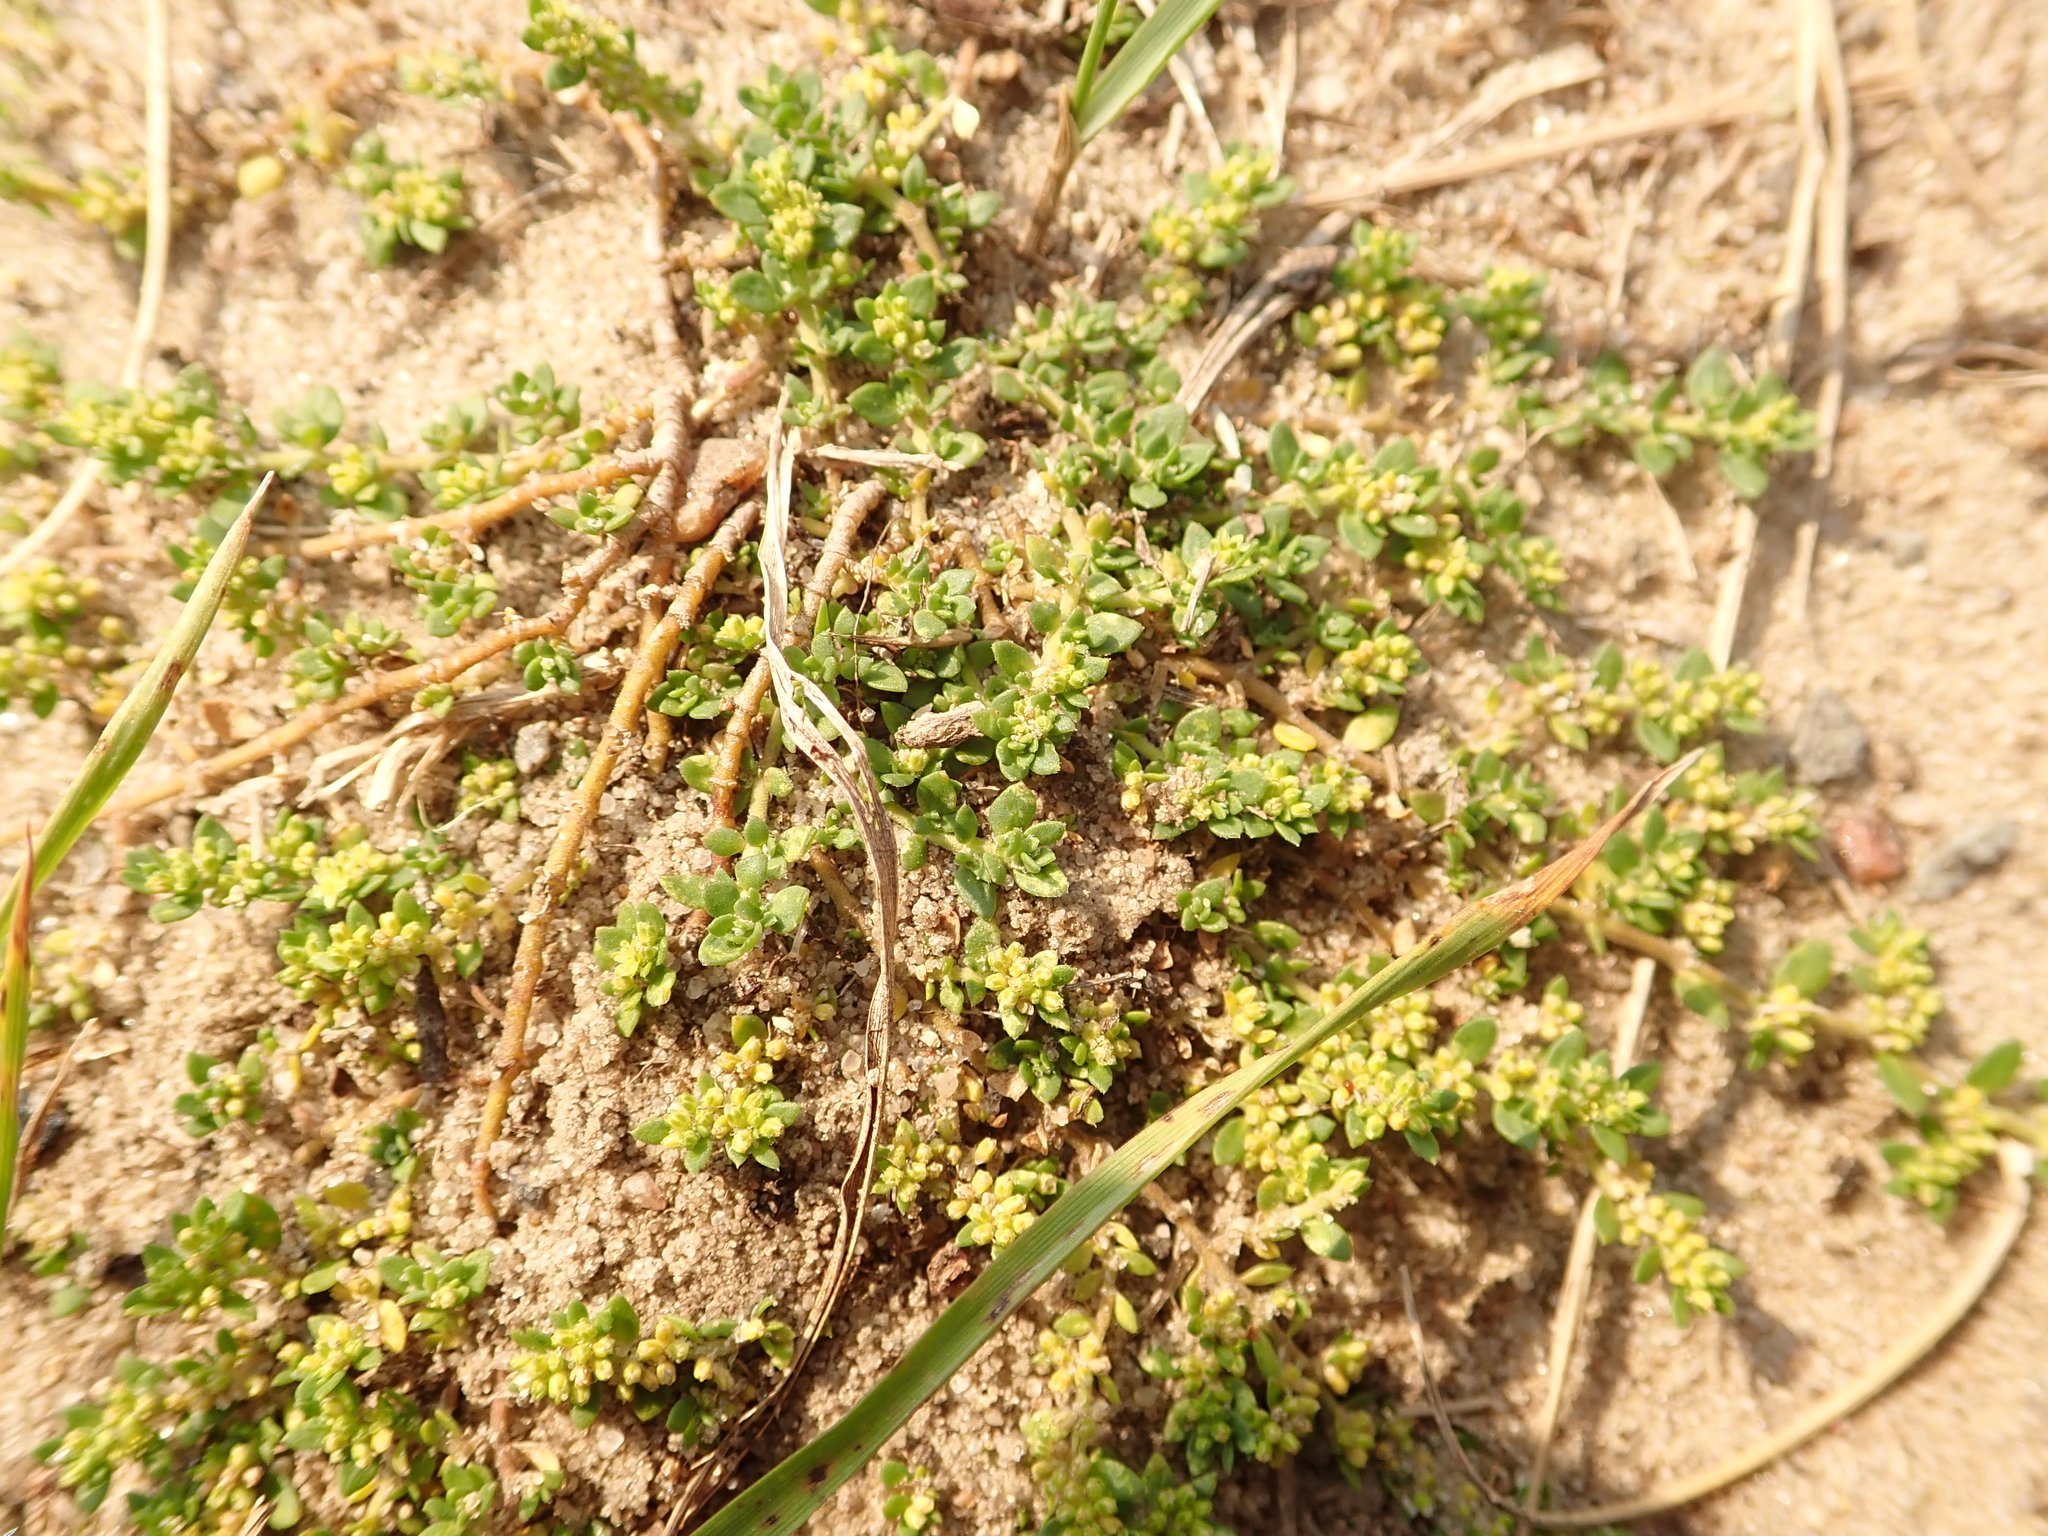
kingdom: Plantae
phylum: Tracheophyta
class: Magnoliopsida
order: Caryophyllales
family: Caryophyllaceae
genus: Herniaria
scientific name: Herniaria glabra
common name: Smooth rupturewort
